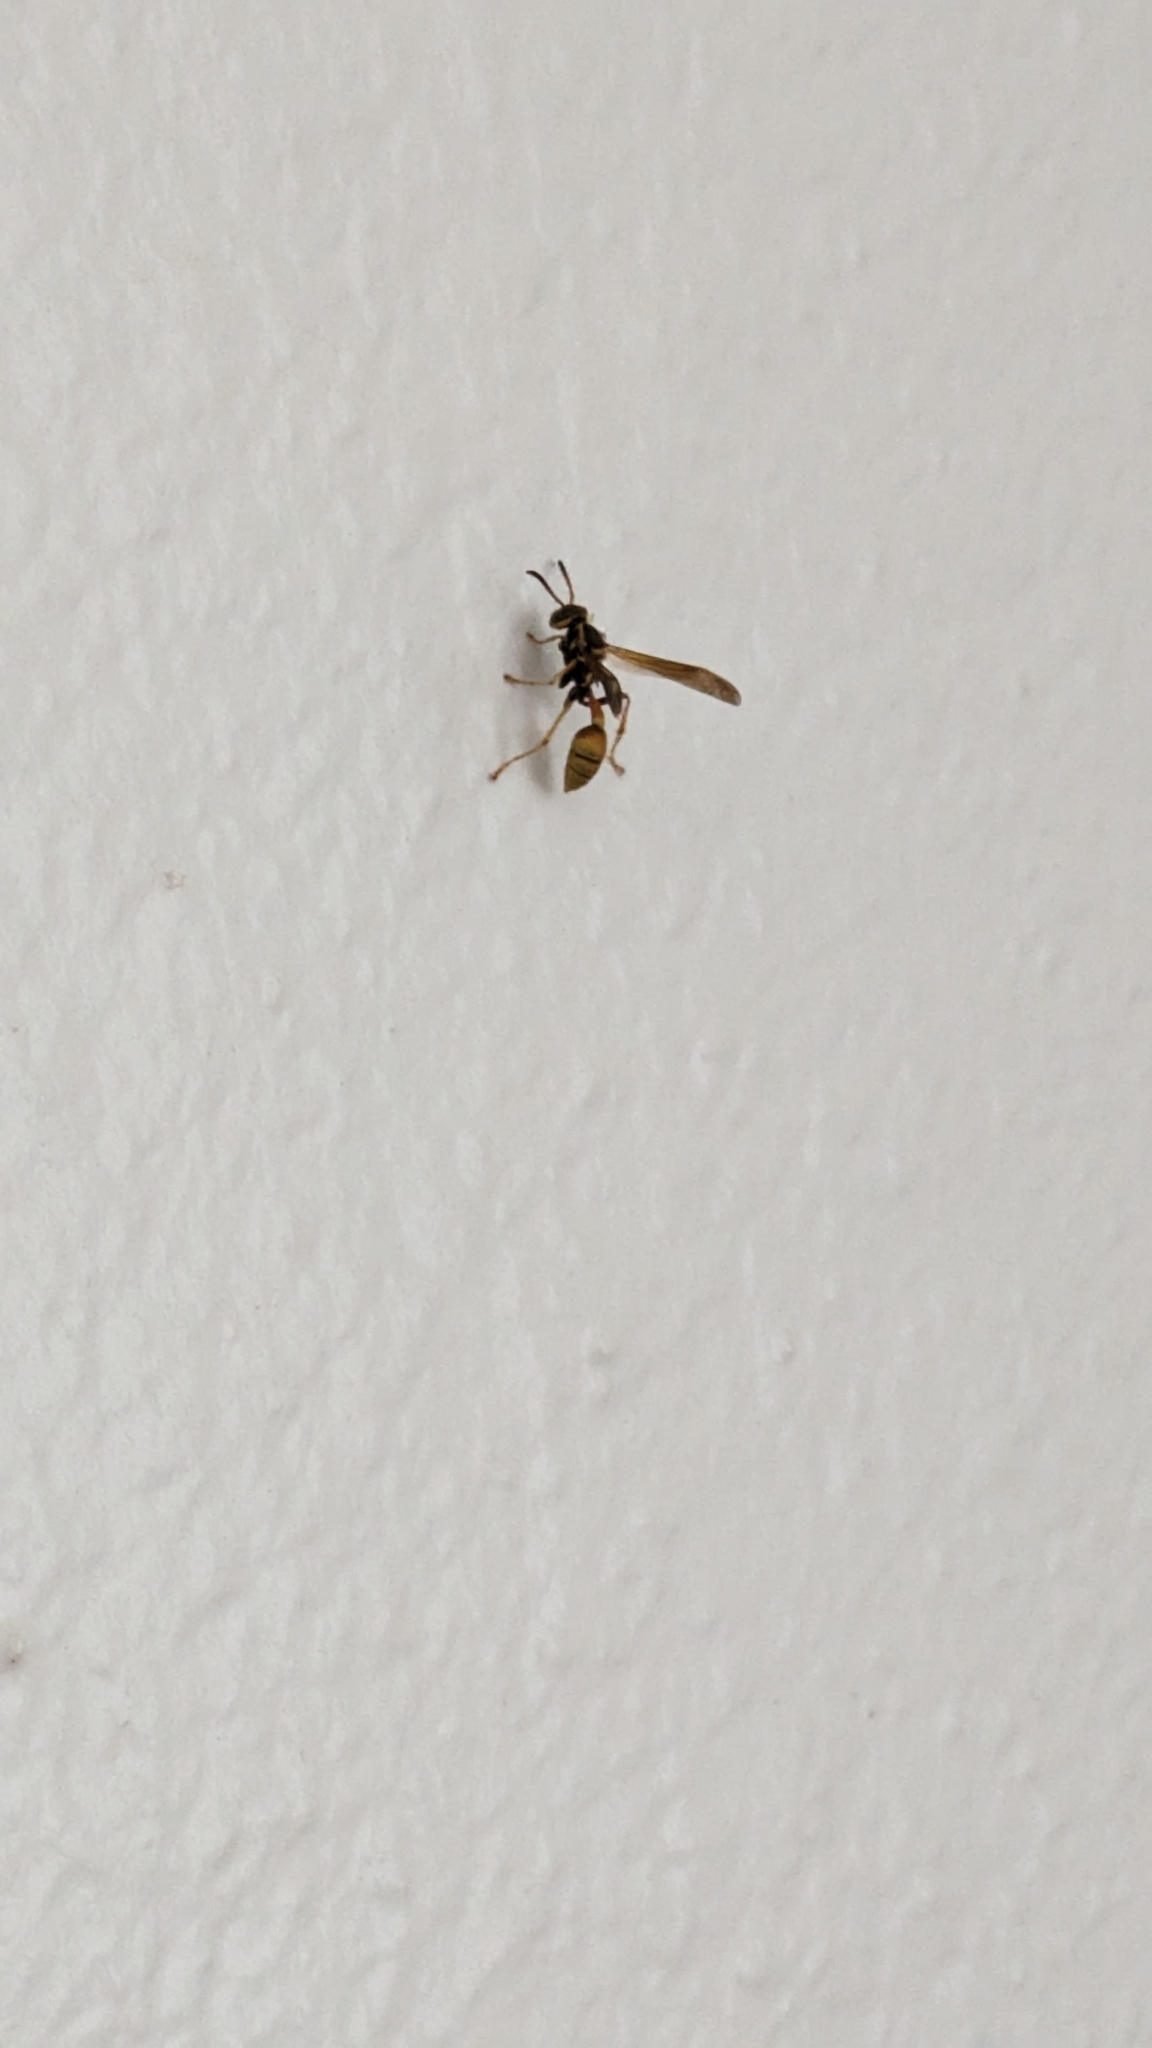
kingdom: Animalia
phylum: Arthropoda
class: Insecta
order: Hymenoptera
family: Vespidae
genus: Mischocyttarus
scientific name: Mischocyttarus flavitarsis
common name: Wasp
